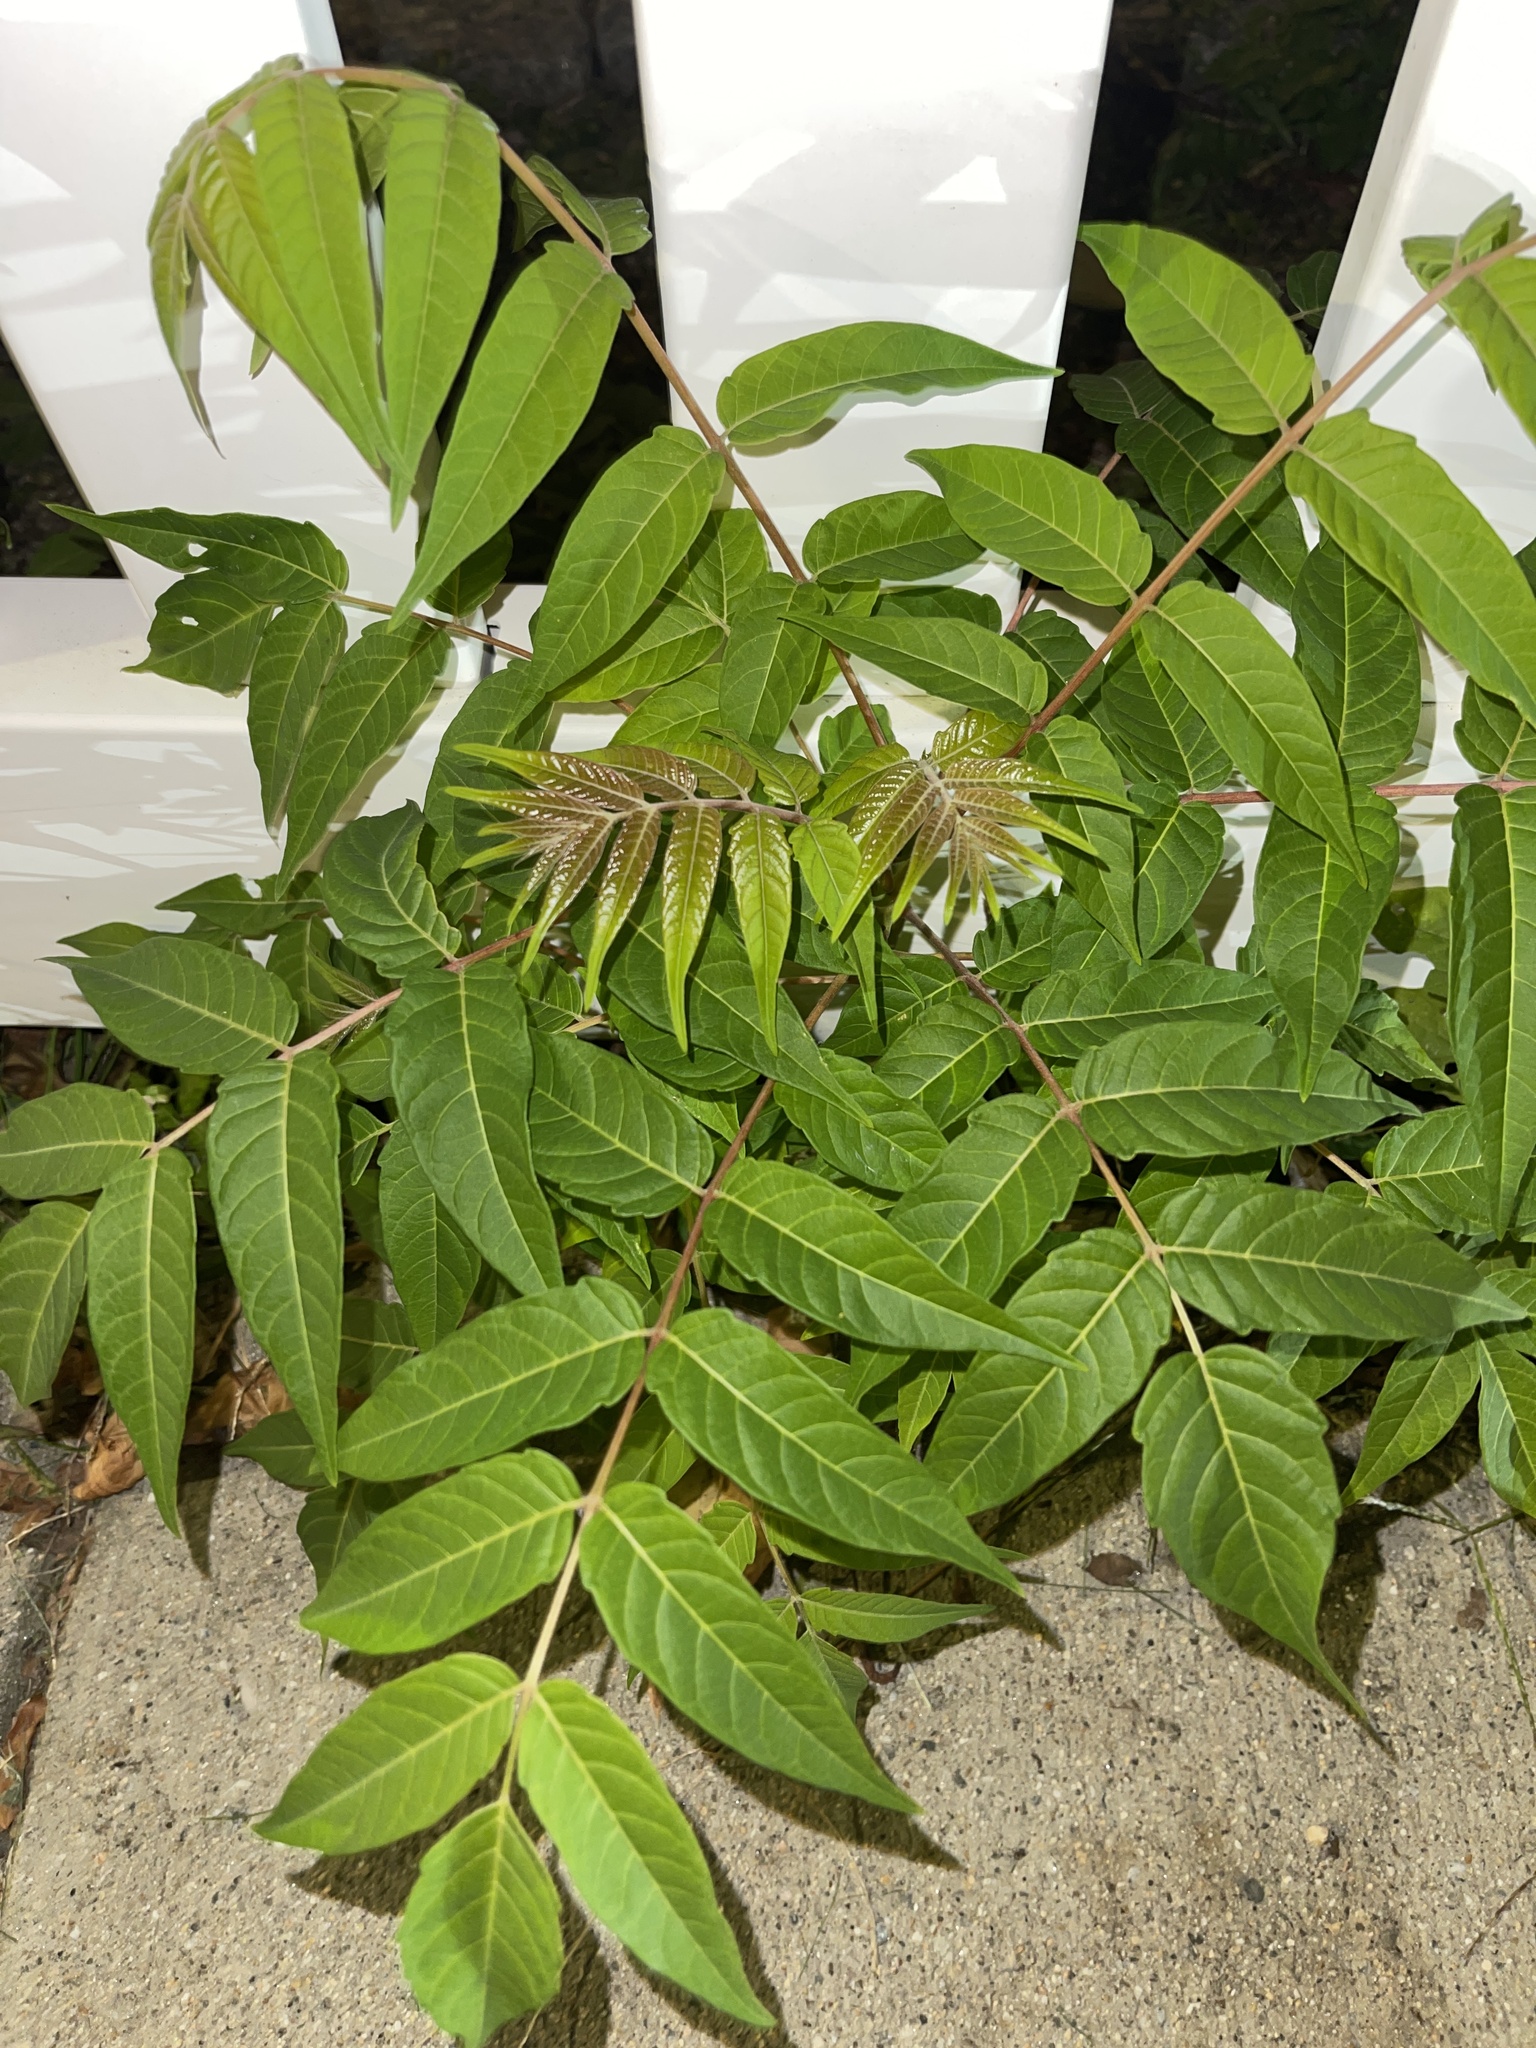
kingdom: Plantae
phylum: Tracheophyta
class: Magnoliopsida
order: Sapindales
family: Simaroubaceae
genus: Ailanthus
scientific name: Ailanthus altissima
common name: Tree-of-heaven
